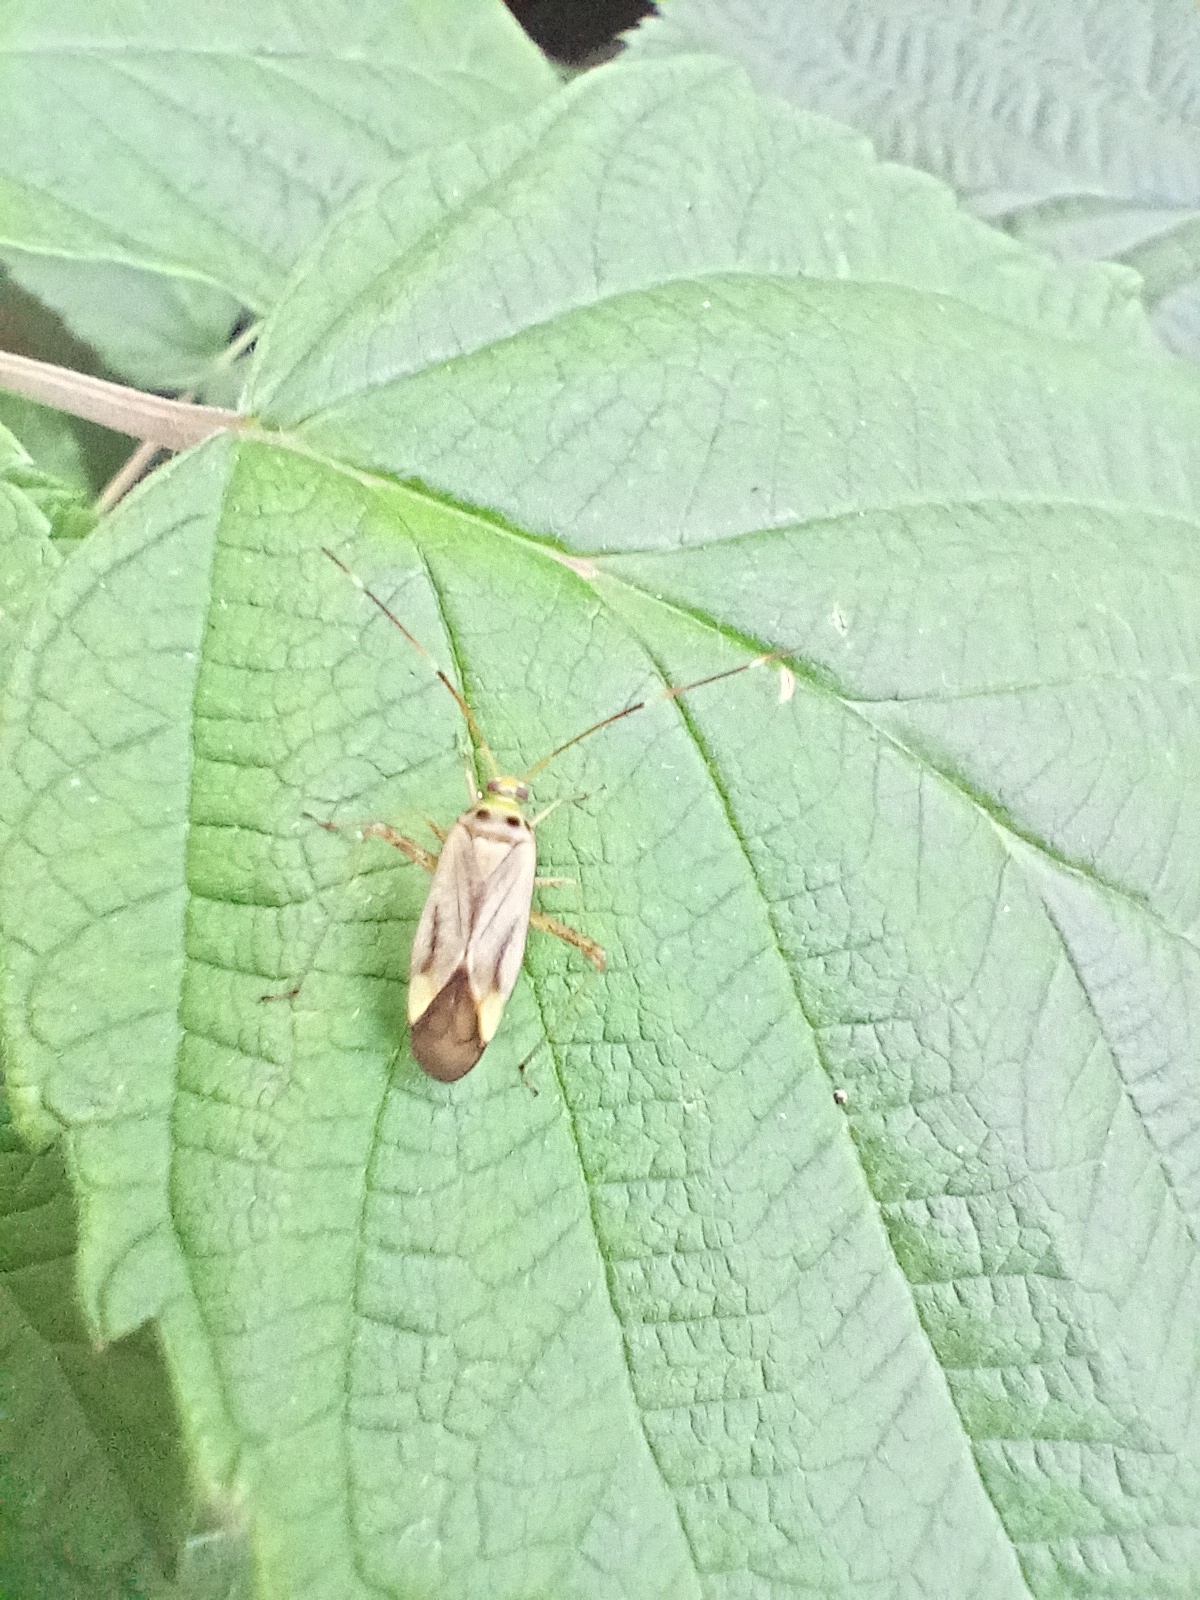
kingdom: Animalia
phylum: Arthropoda
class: Insecta
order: Hemiptera
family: Miridae
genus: Adelphocoris
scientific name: Adelphocoris quadripunctatus
